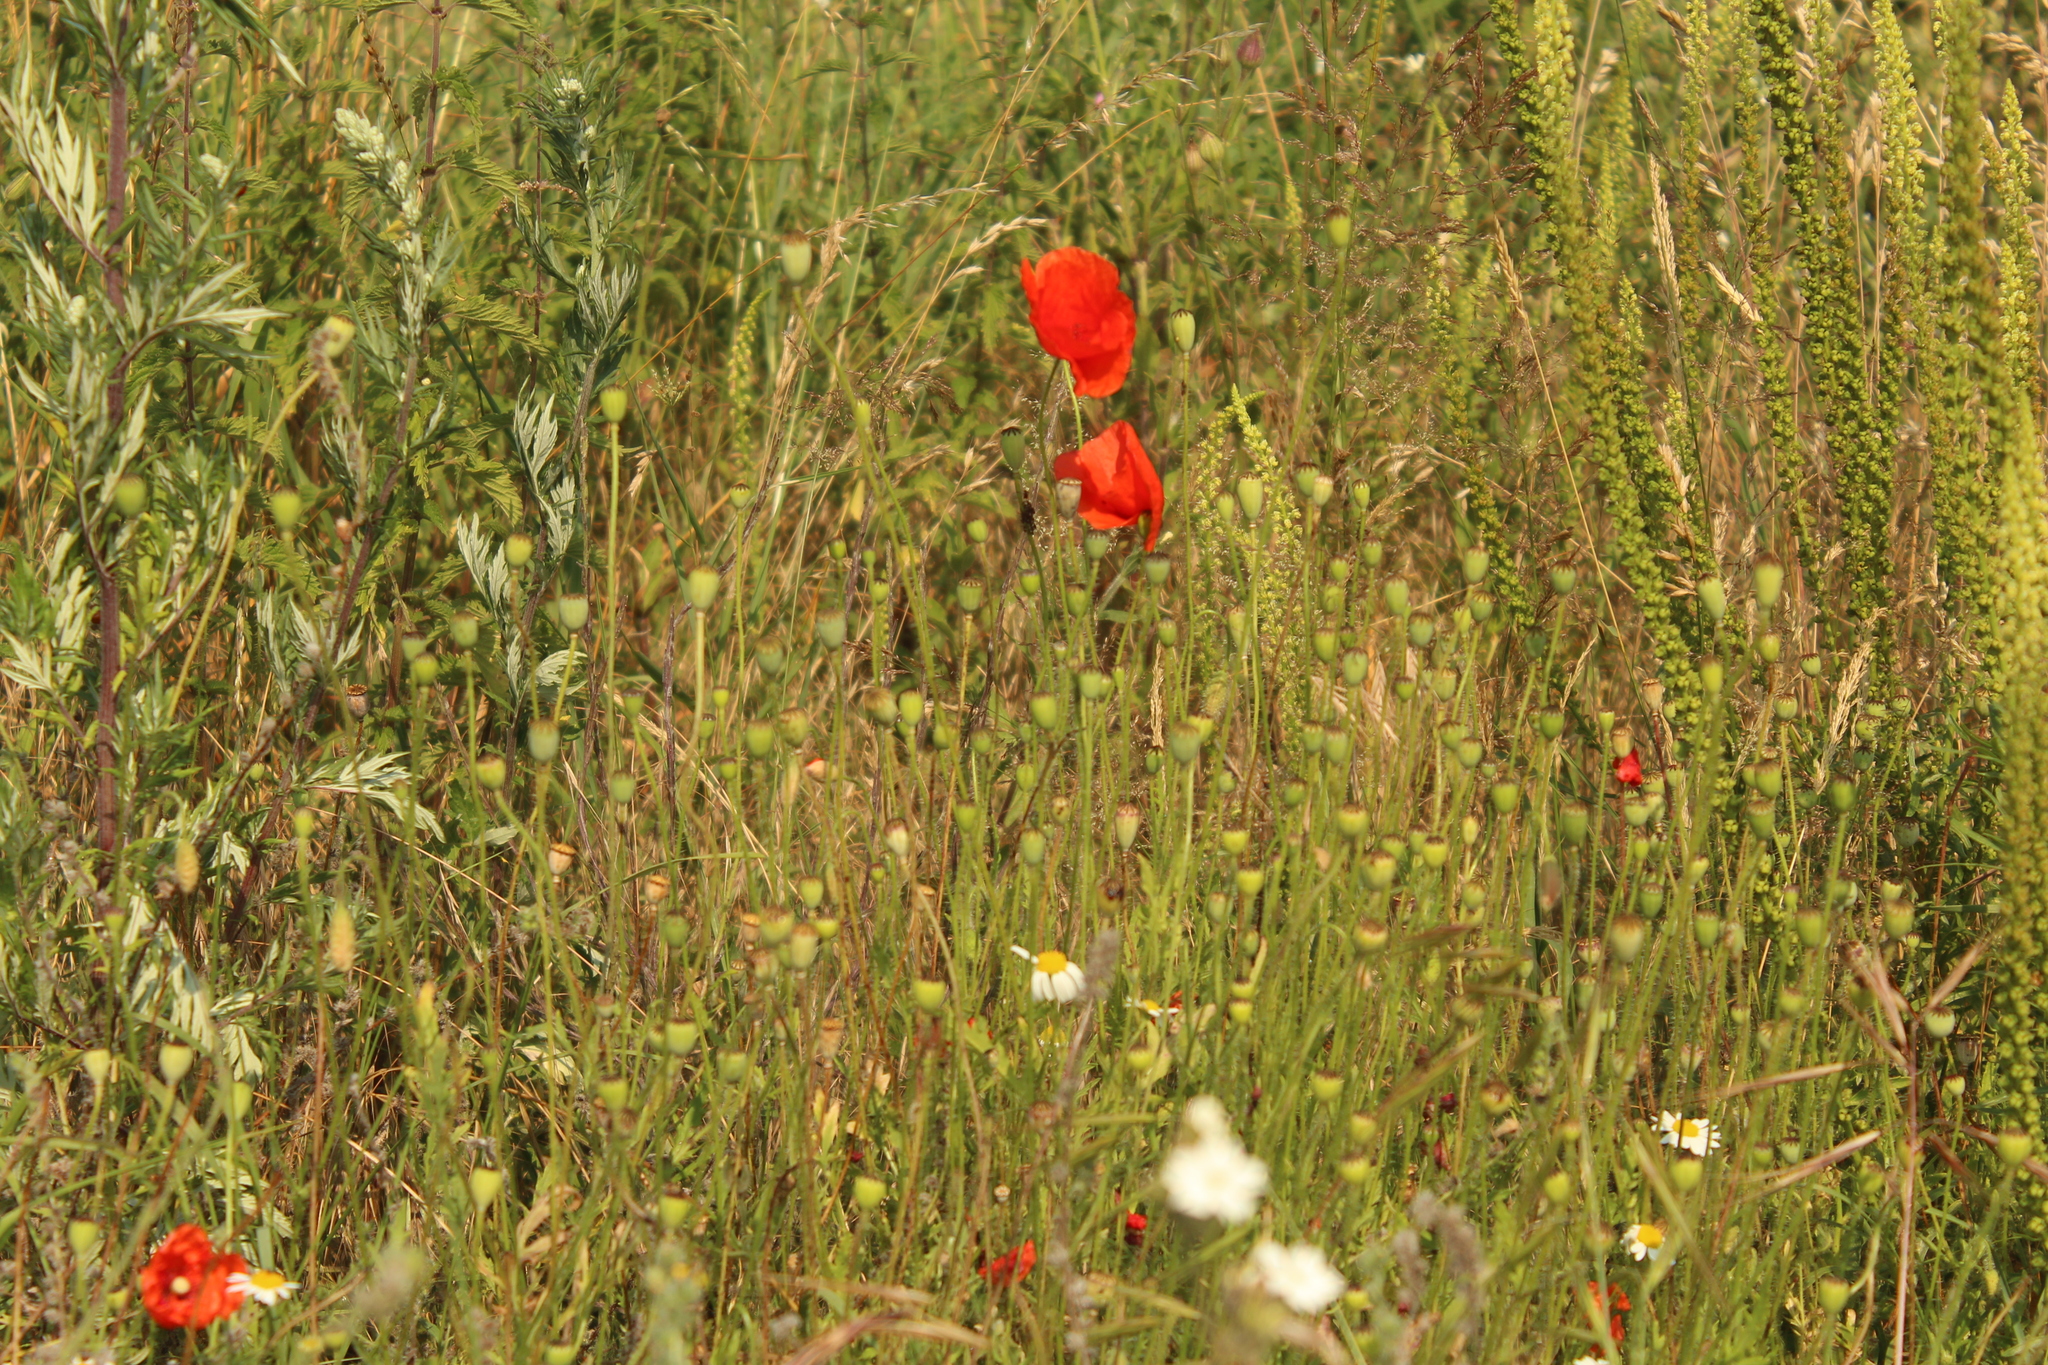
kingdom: Plantae
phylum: Tracheophyta
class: Magnoliopsida
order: Ranunculales
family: Papaveraceae
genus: Papaver
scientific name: Papaver rhoeas
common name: Corn poppy
